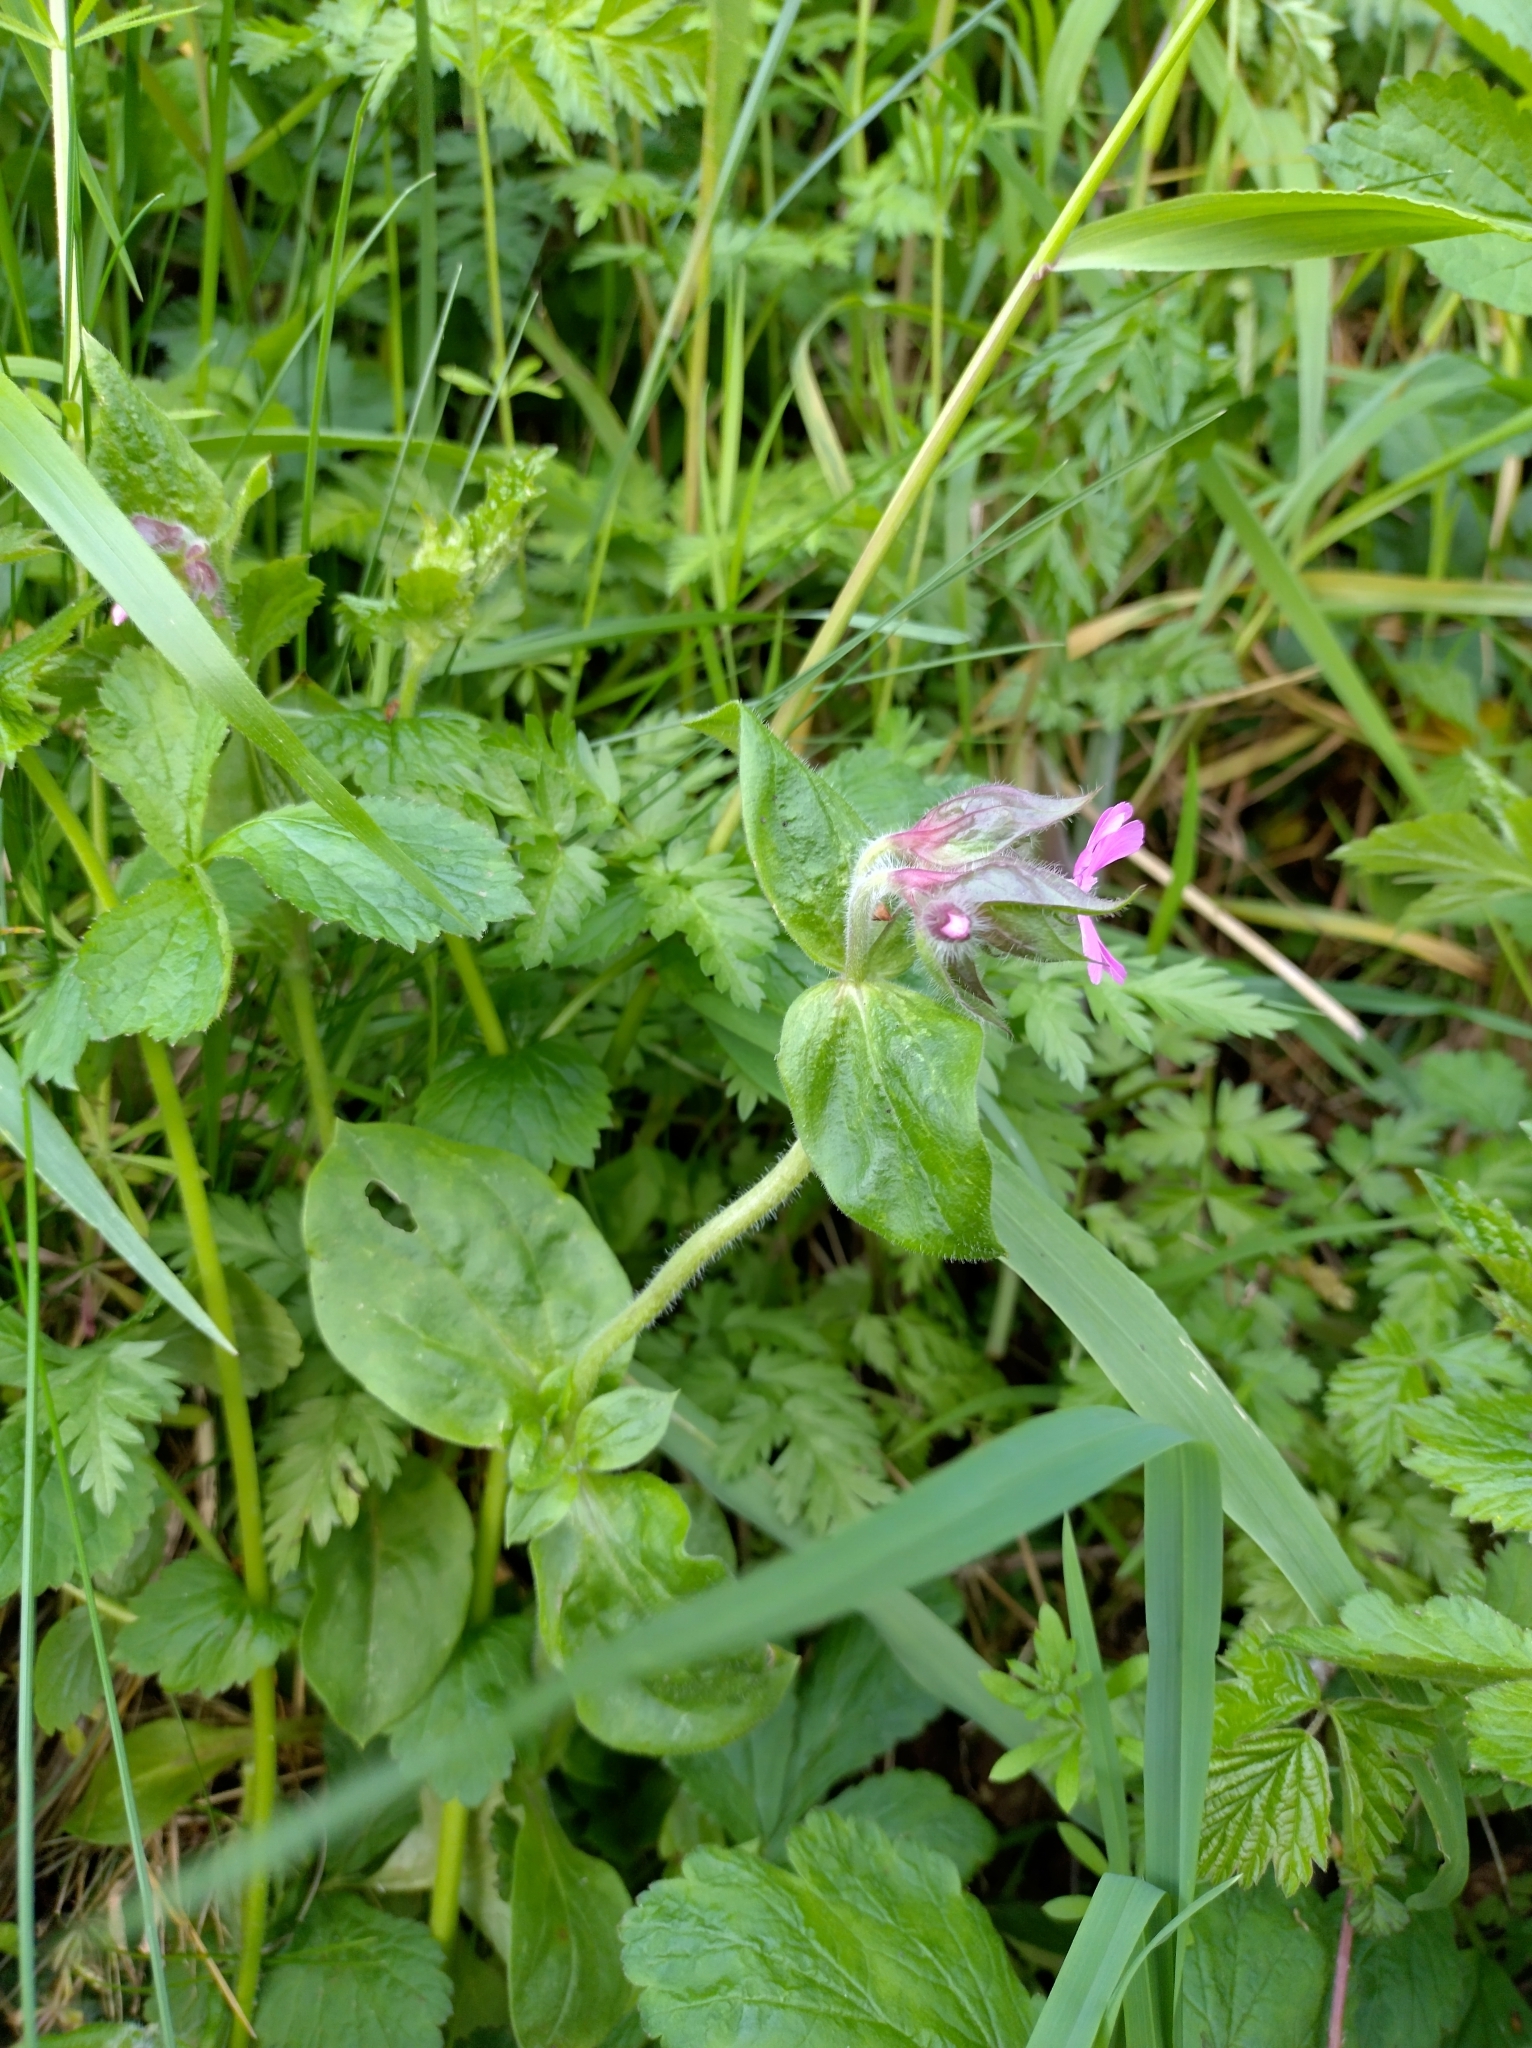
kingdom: Plantae
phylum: Tracheophyta
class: Magnoliopsida
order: Caryophyllales
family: Caryophyllaceae
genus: Silene
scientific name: Silene dioica
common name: Red campion
